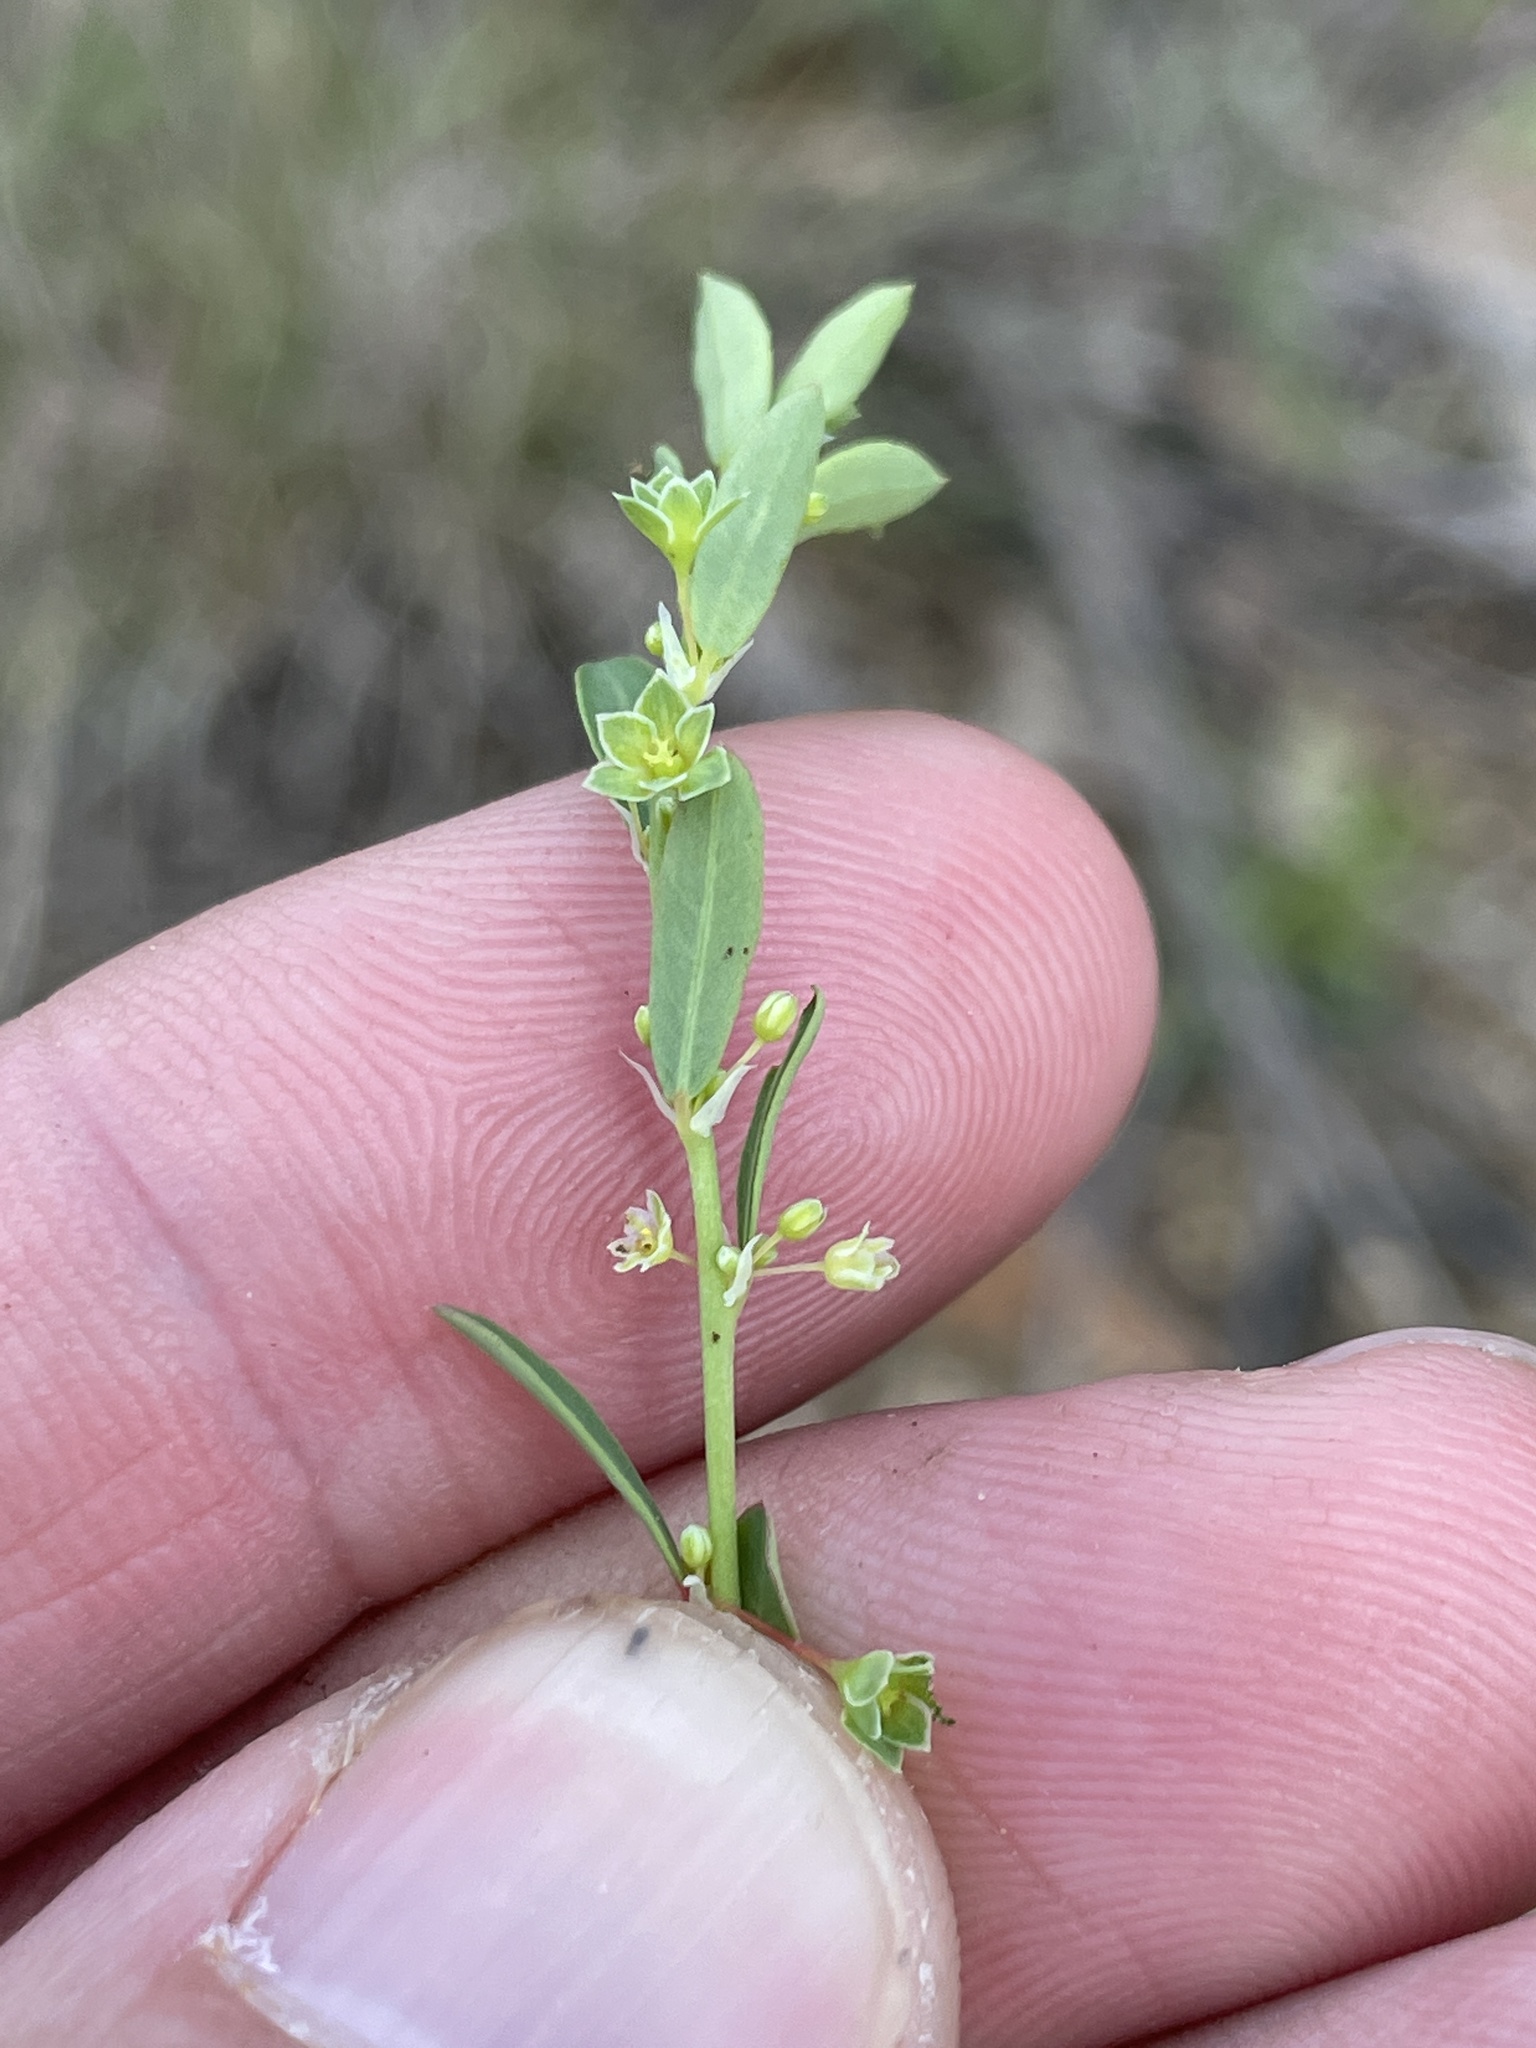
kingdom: Plantae
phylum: Tracheophyta
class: Magnoliopsida
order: Malpighiales
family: Phyllanthaceae
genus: Phyllanthus
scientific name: Phyllanthus polygonoides
